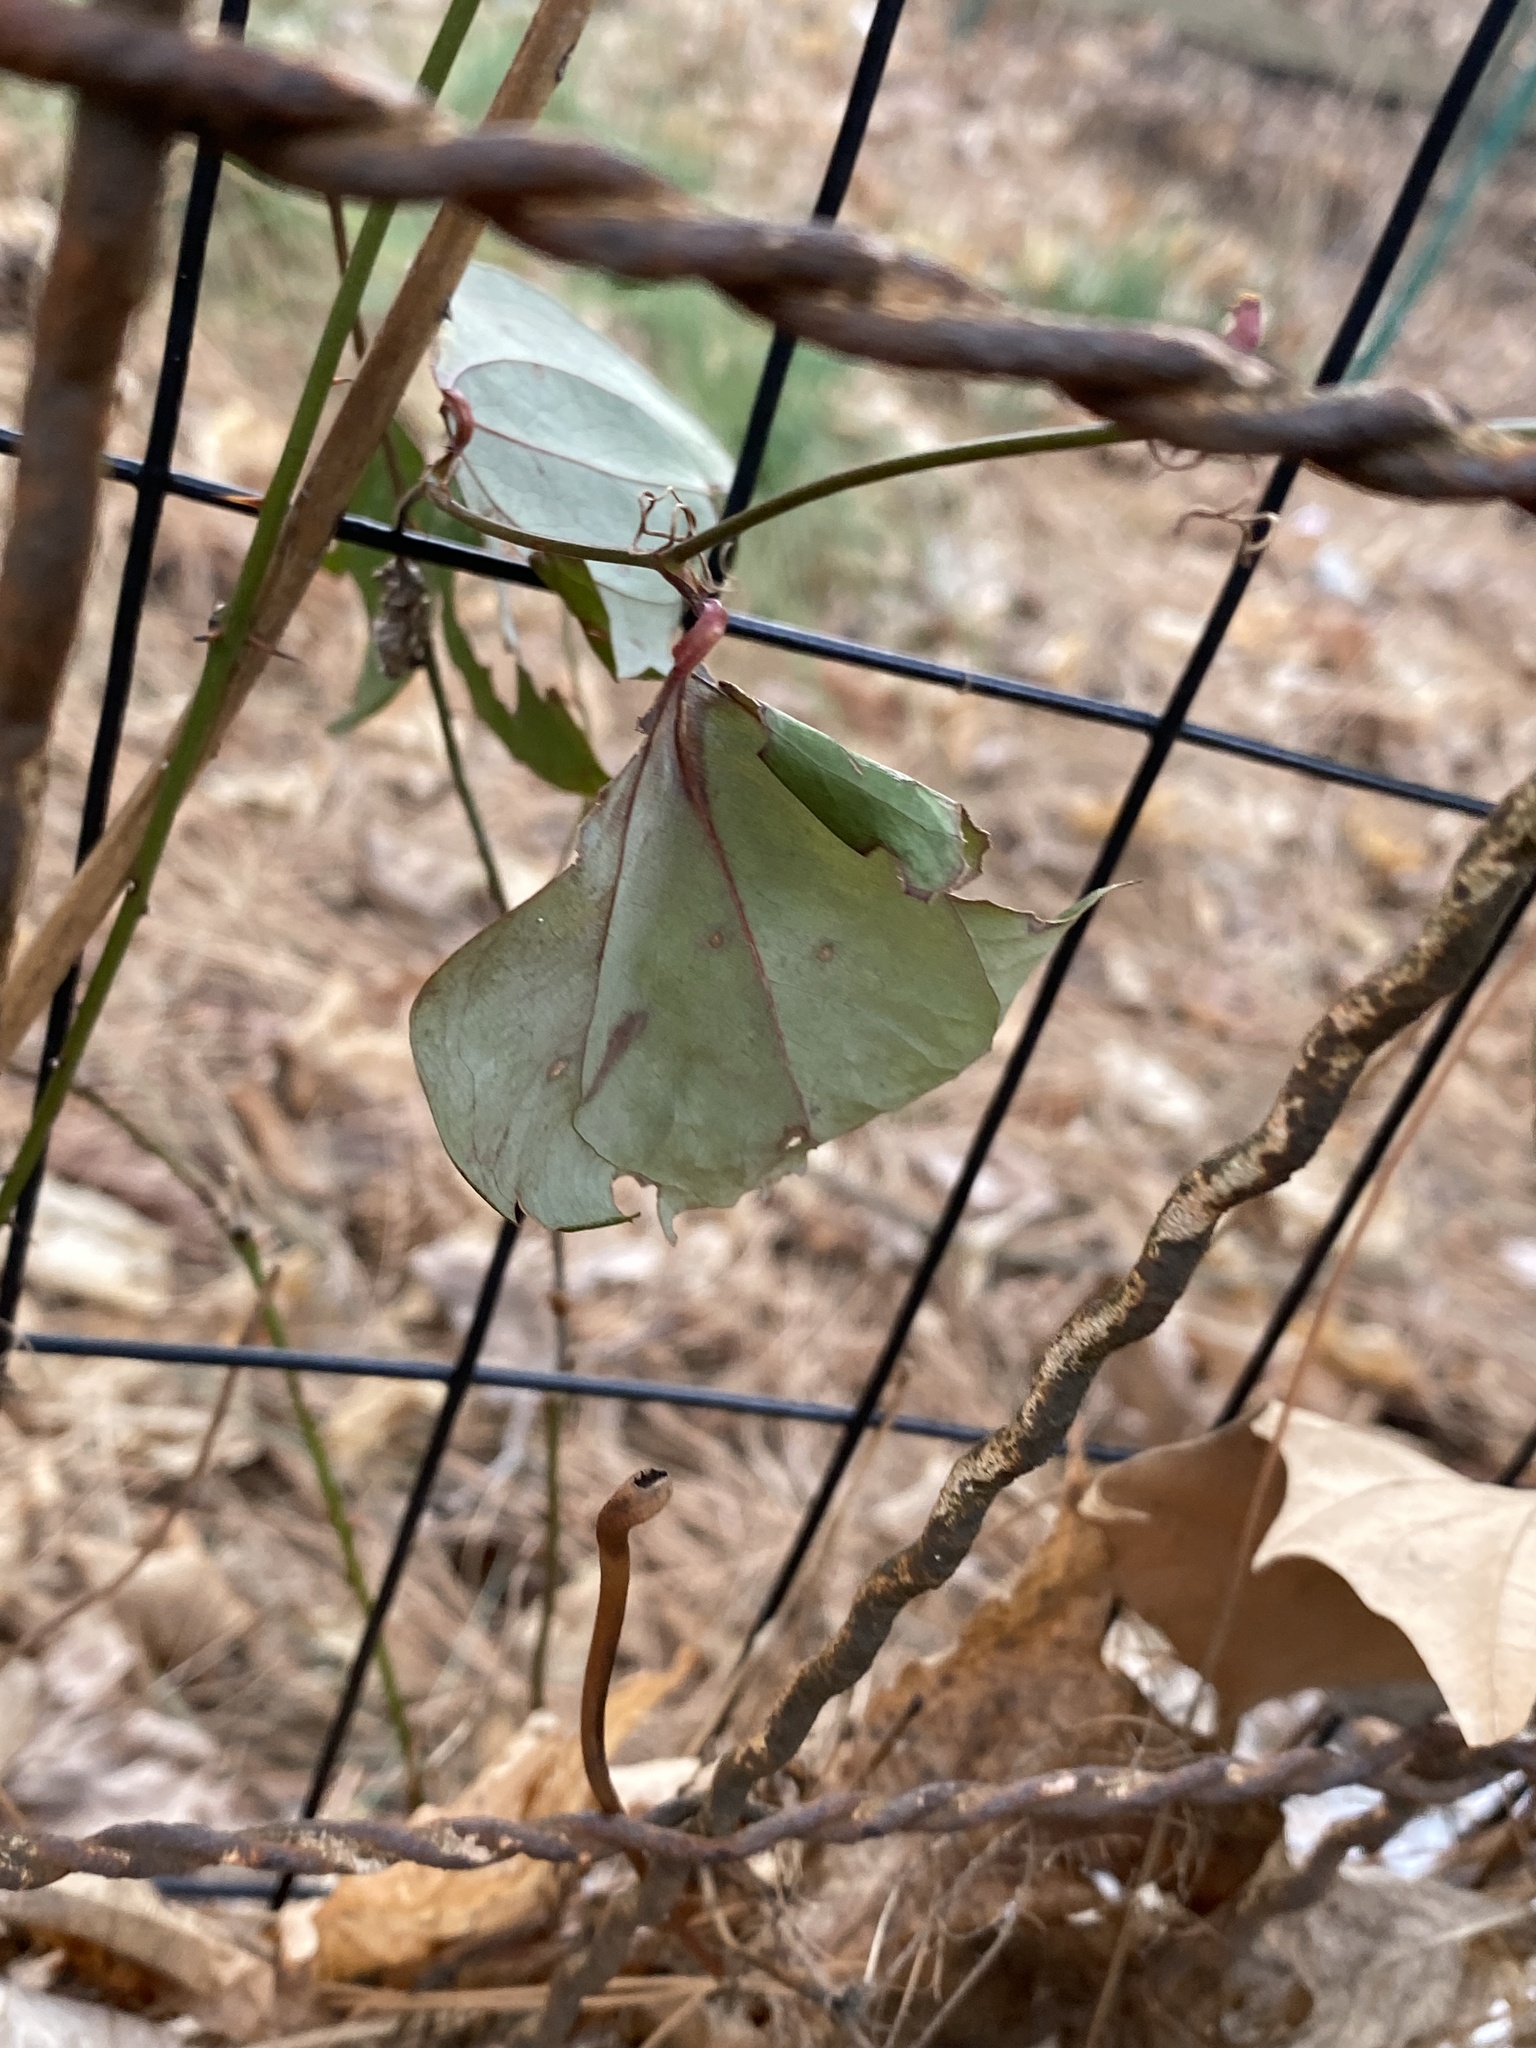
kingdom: Plantae
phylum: Tracheophyta
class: Liliopsida
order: Liliales
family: Smilacaceae
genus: Smilax
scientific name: Smilax glauca
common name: Cat greenbrier
